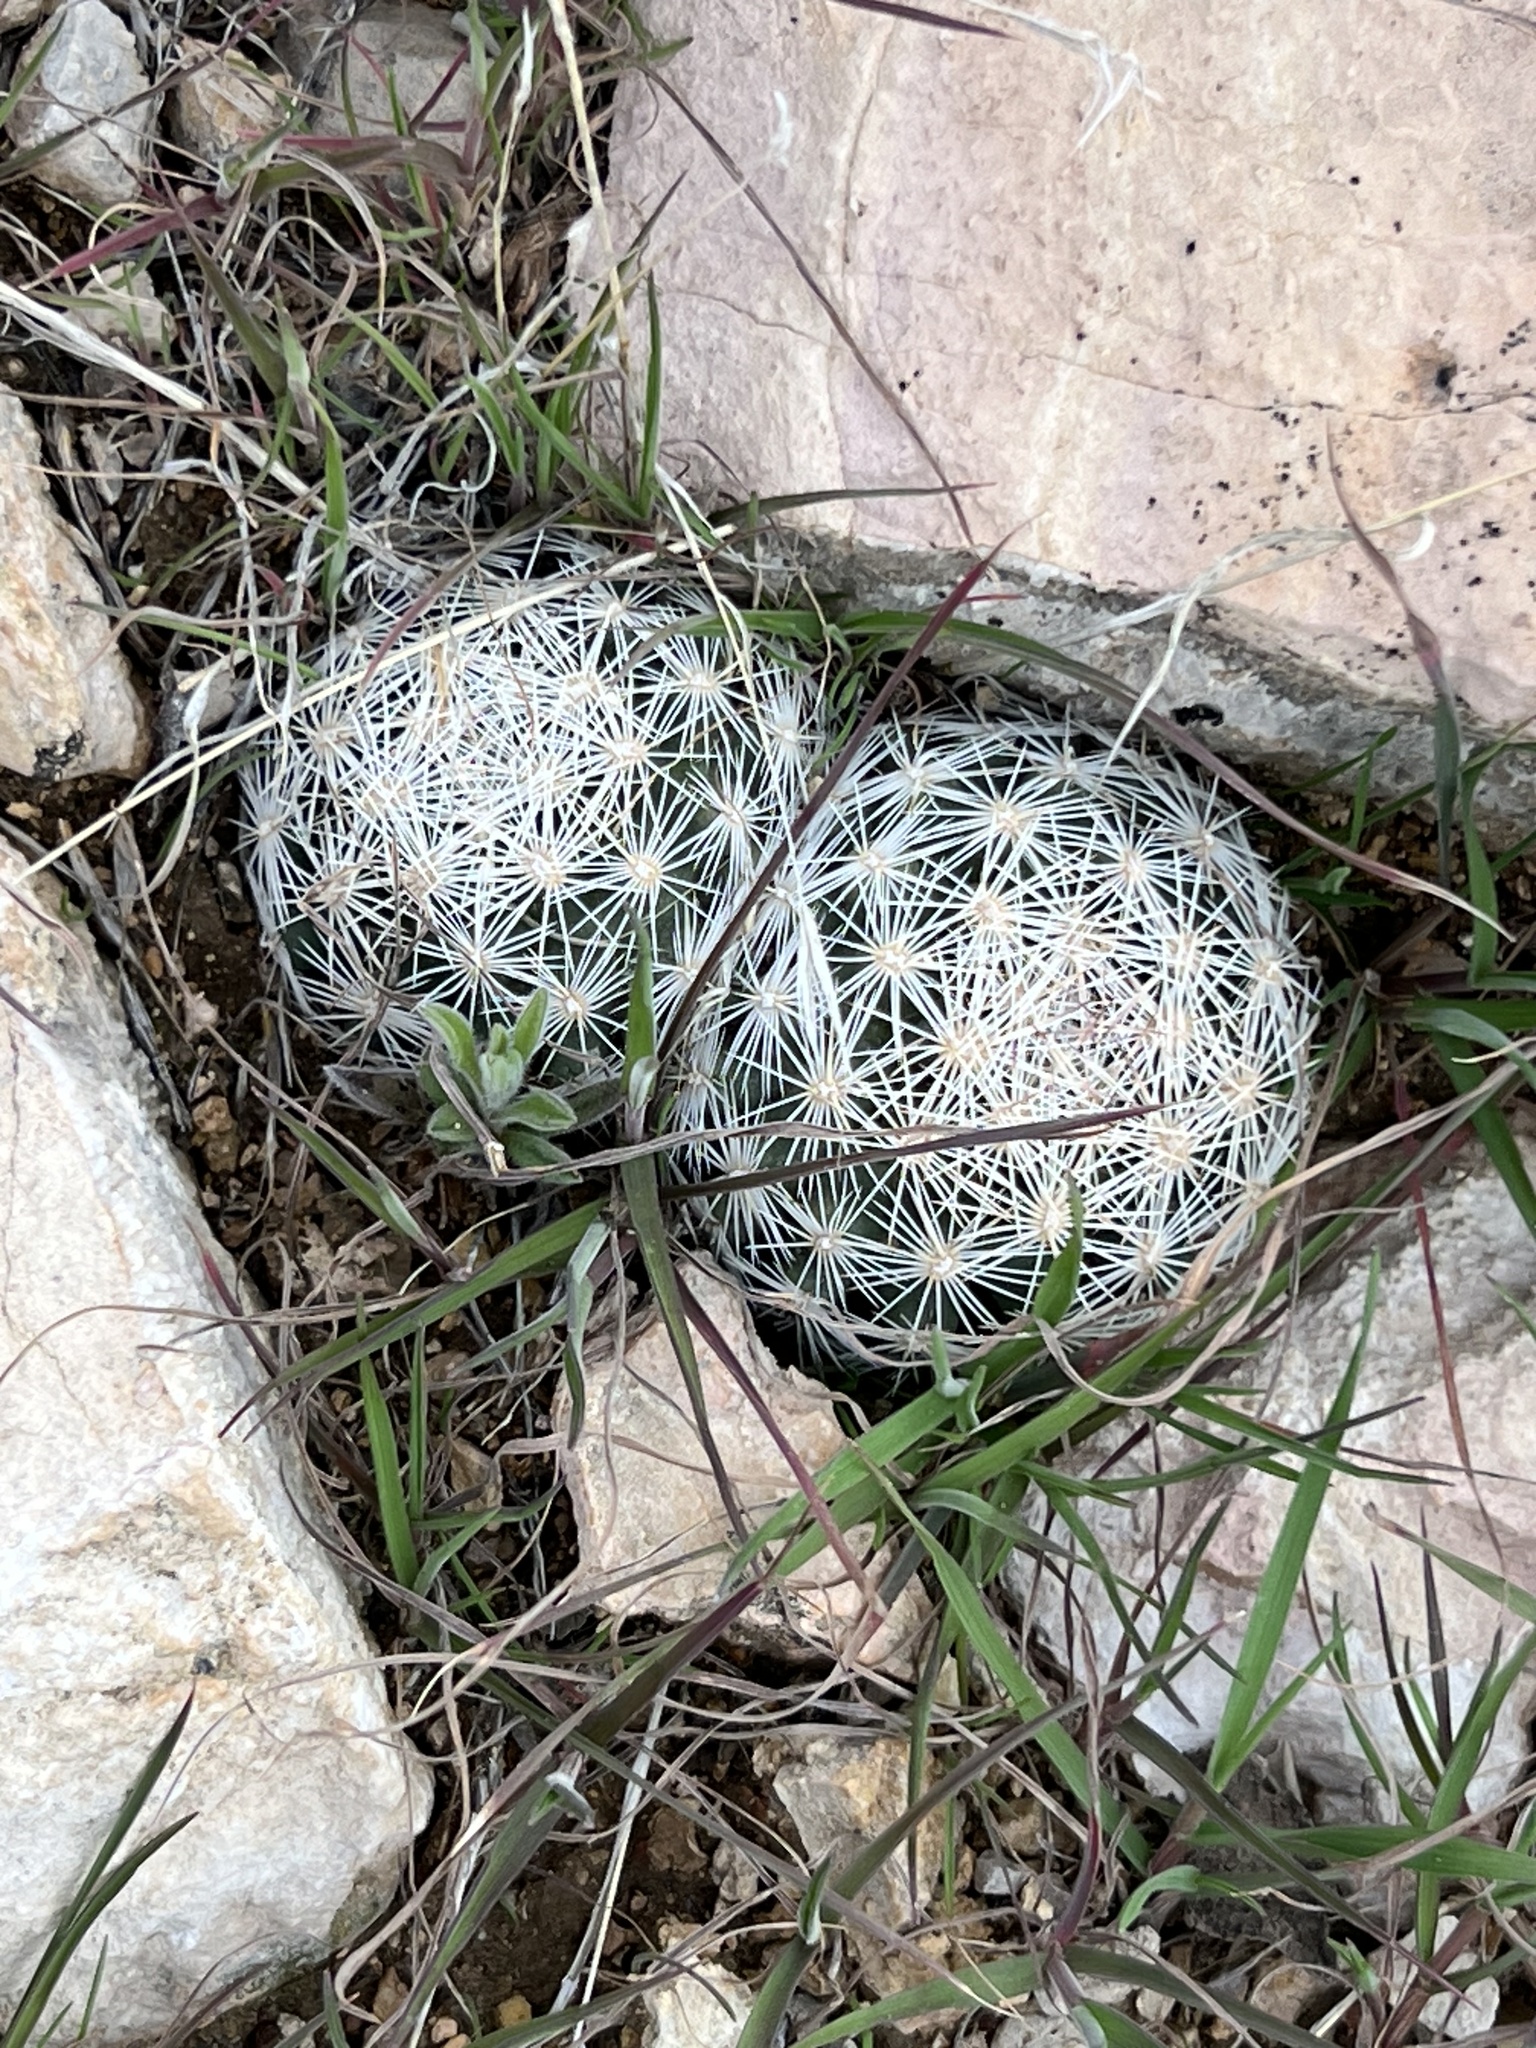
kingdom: Plantae
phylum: Tracheophyta
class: Magnoliopsida
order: Caryophyllales
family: Cactaceae
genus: Pelecyphora
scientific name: Pelecyphora dasyacantha
